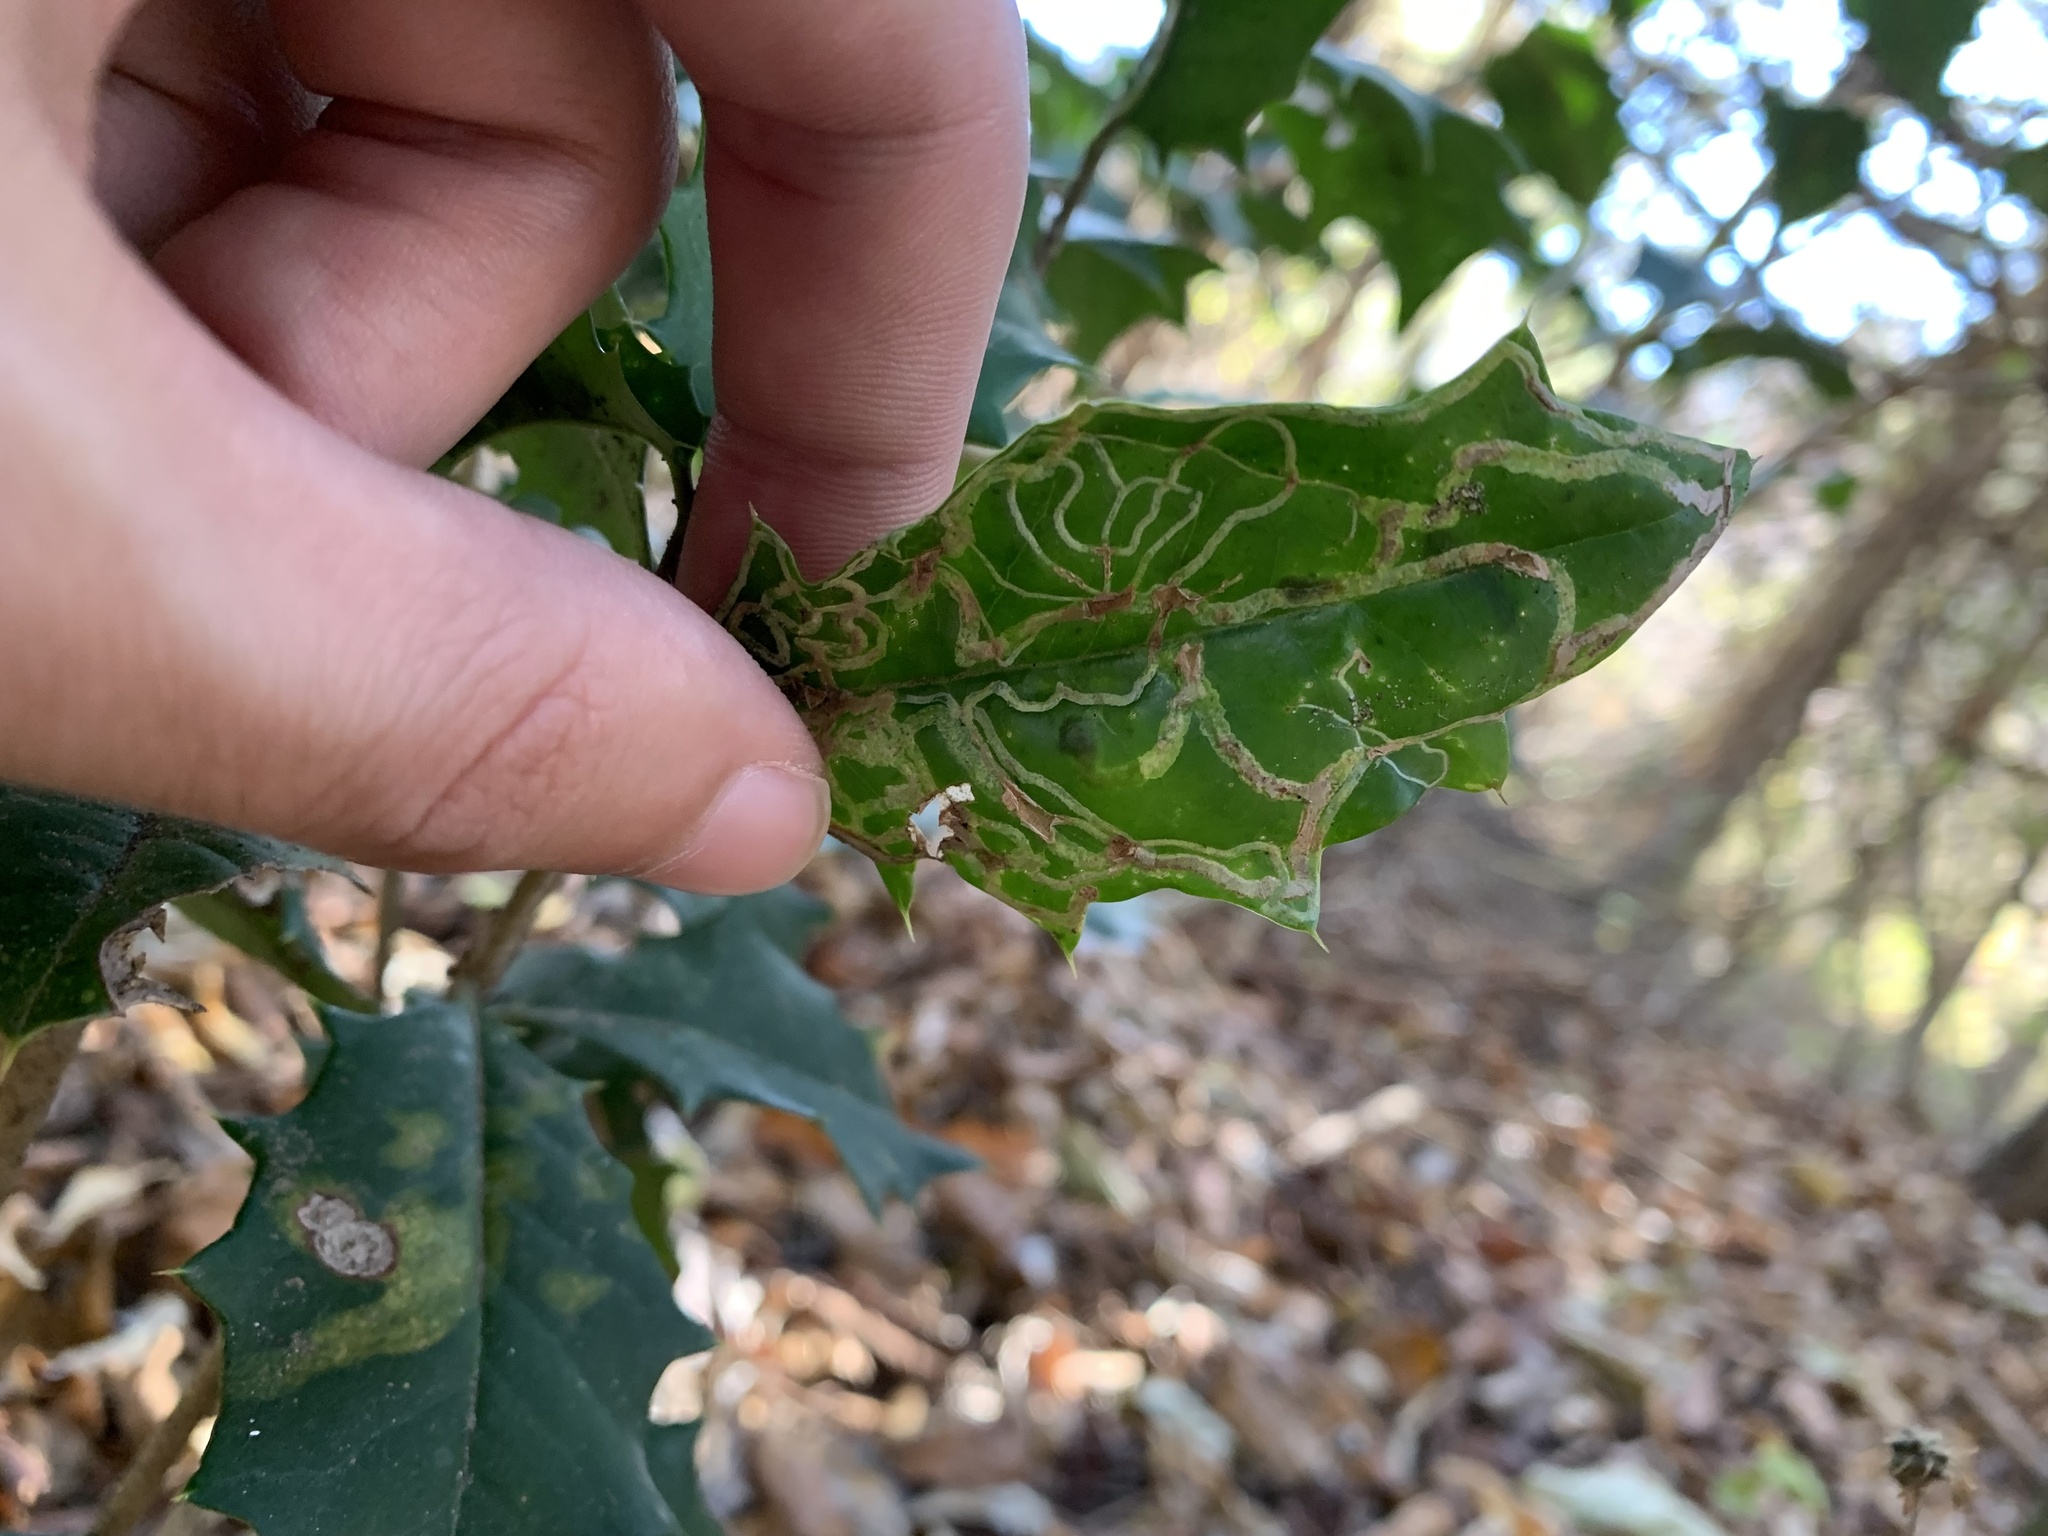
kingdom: Animalia
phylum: Arthropoda
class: Insecta
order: Diptera
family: Agromyzidae
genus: Phytomyza
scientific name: Phytomyza opacae
